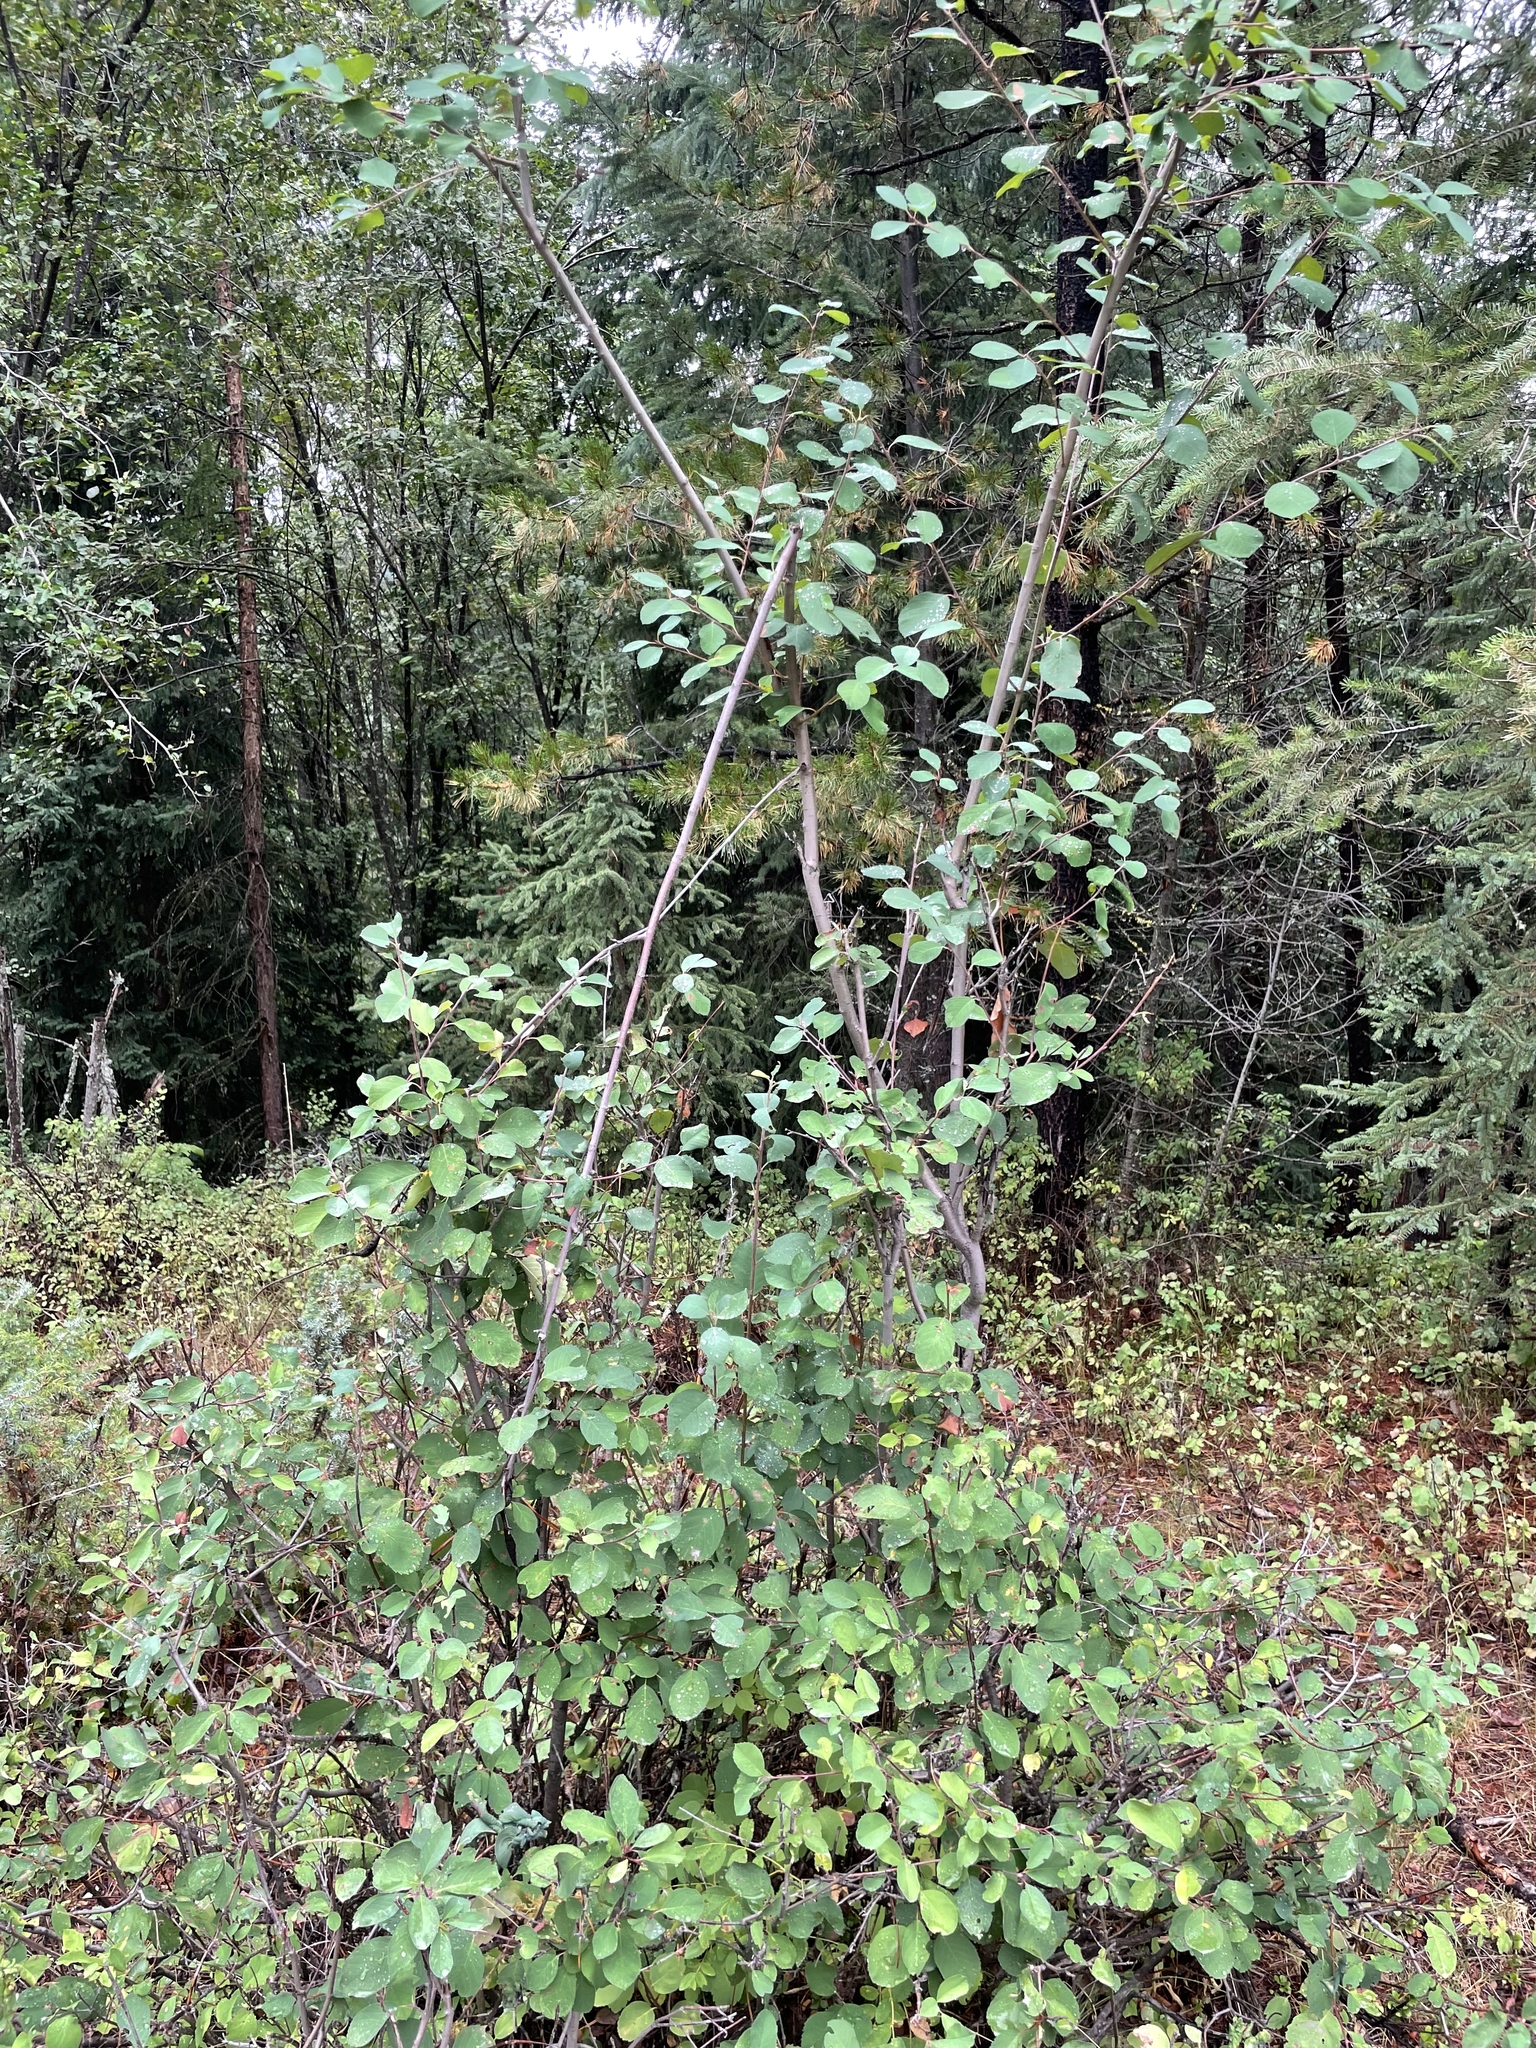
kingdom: Plantae
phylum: Tracheophyta
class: Magnoliopsida
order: Rosales
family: Rosaceae
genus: Amelanchier
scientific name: Amelanchier alnifolia
